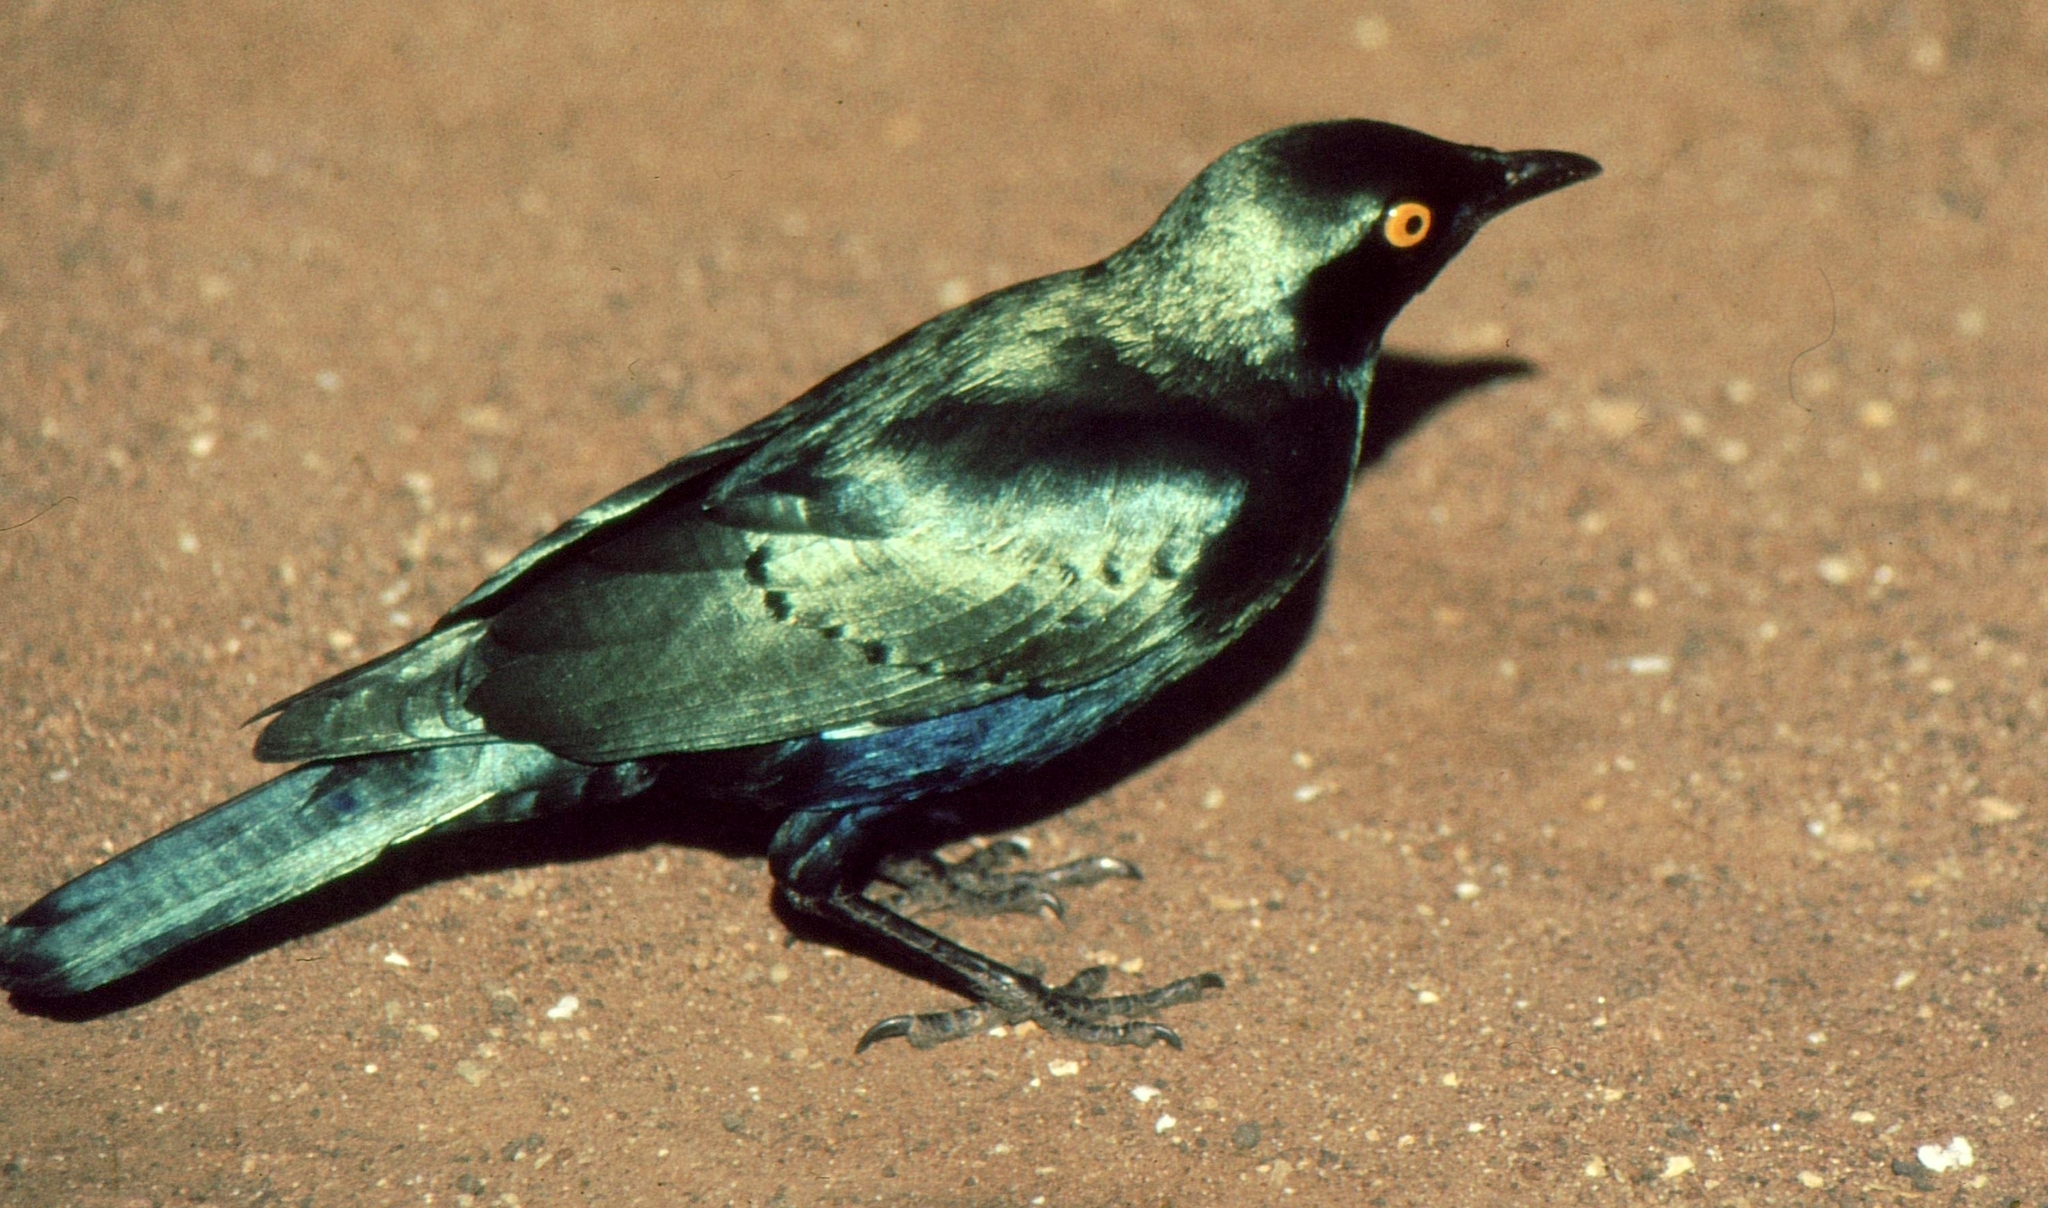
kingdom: Animalia
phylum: Chordata
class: Aves
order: Passeriformes
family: Sturnidae
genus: Lamprotornis
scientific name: Lamprotornis chalybaeus
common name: Greater blue-eared starling
